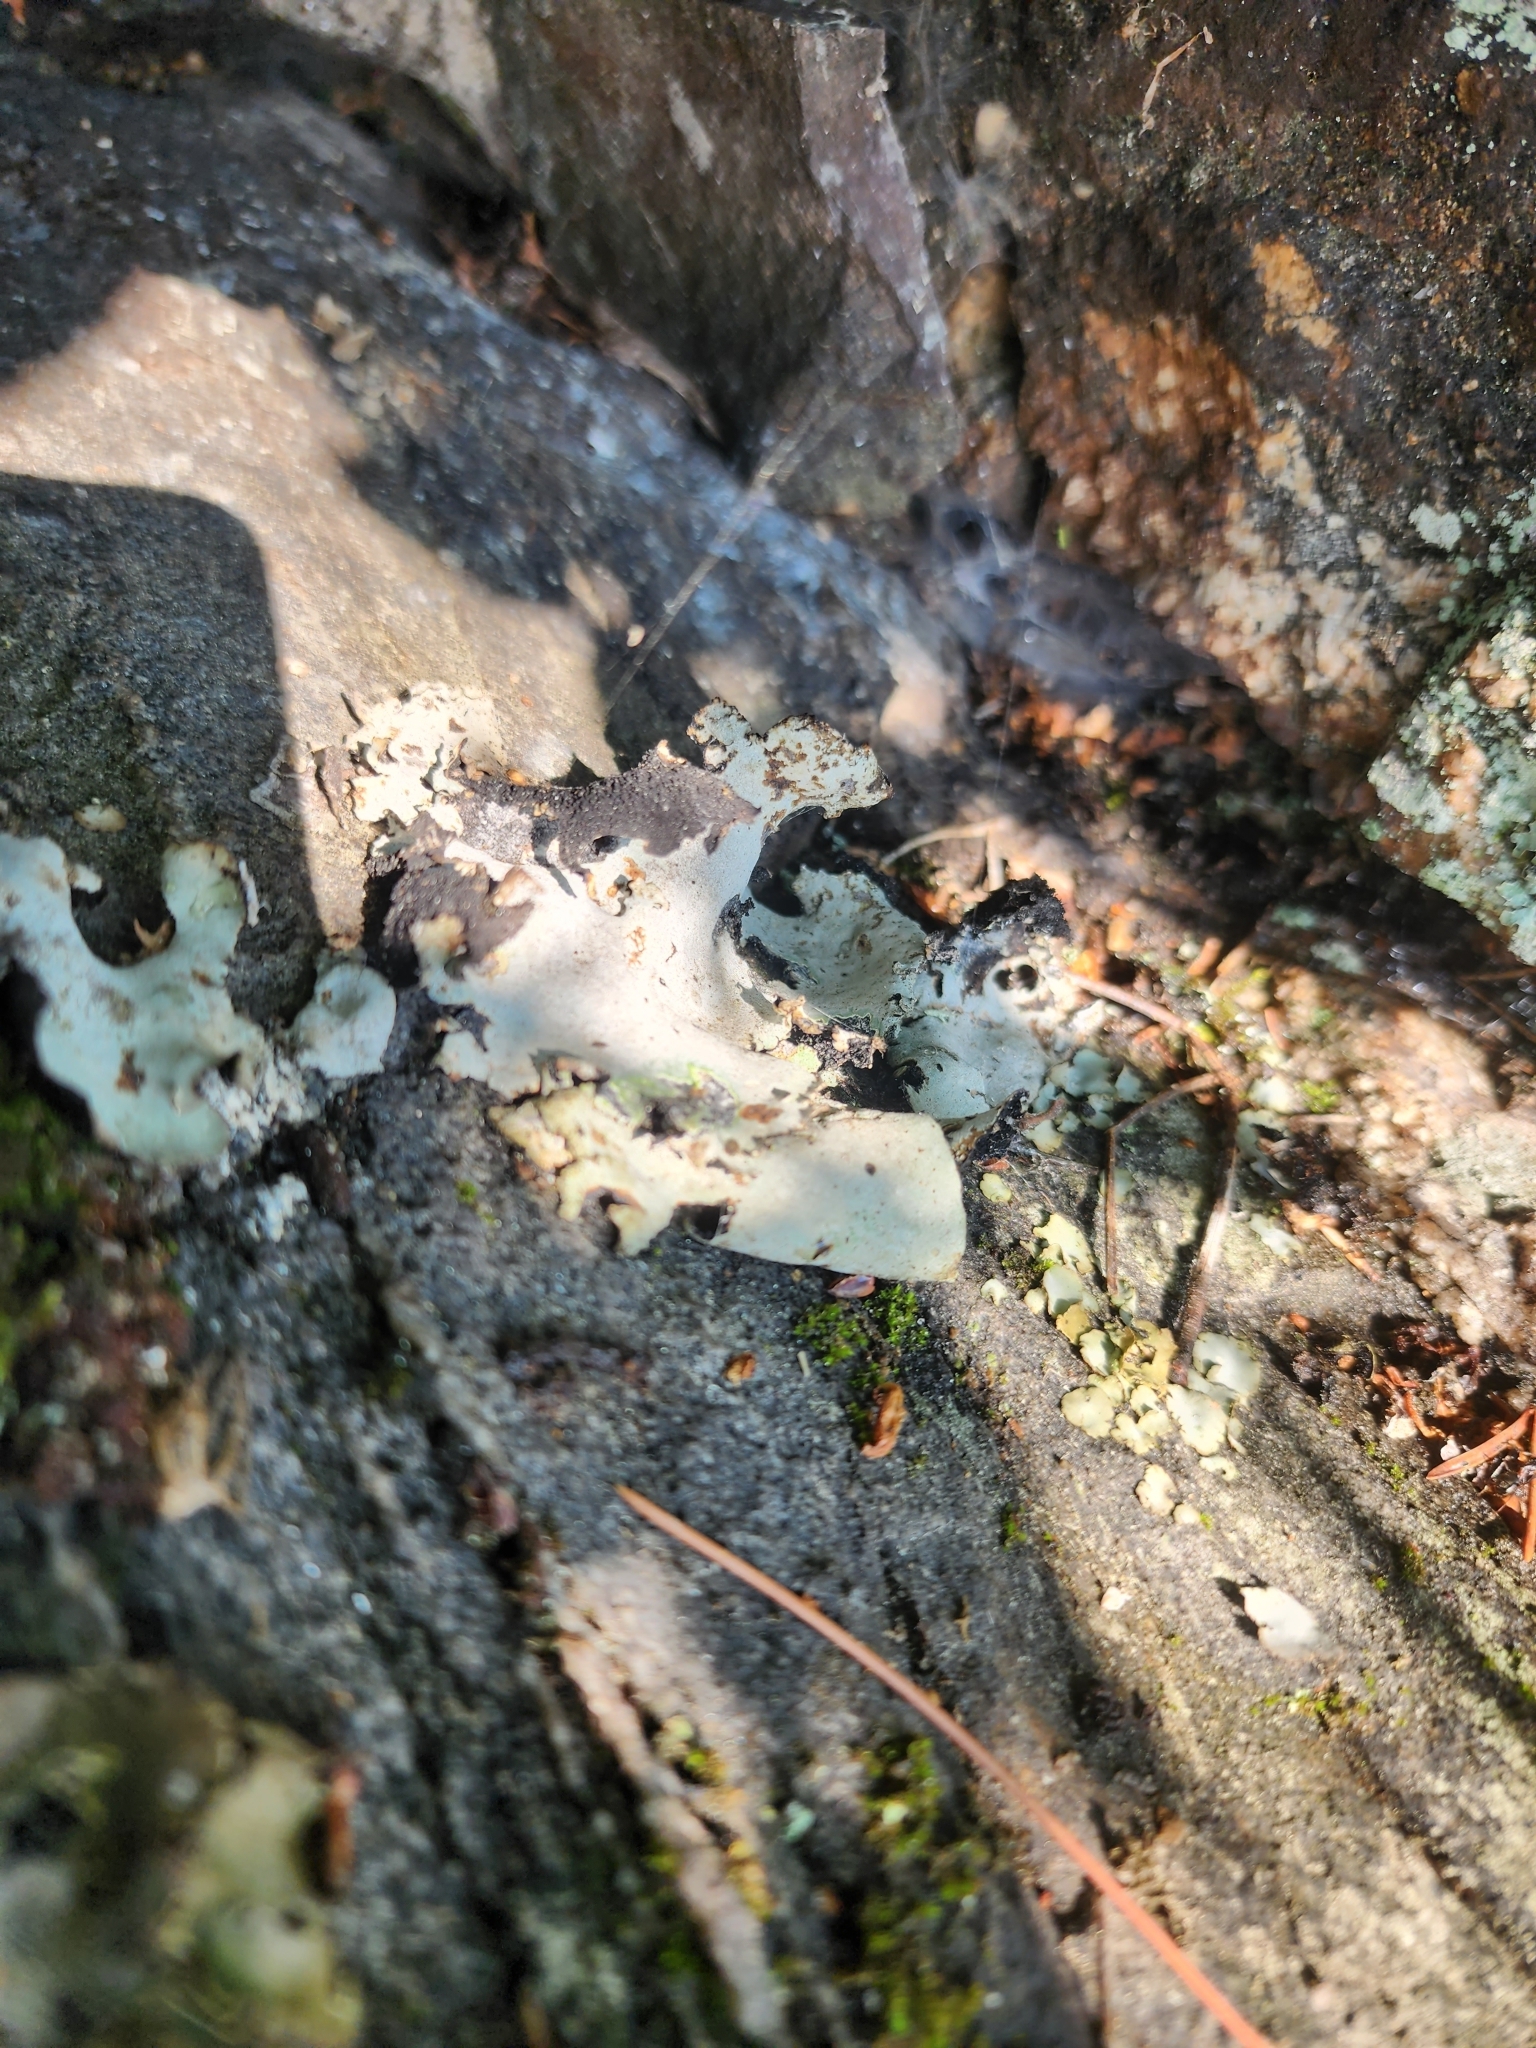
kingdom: Fungi
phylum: Ascomycota
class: Lecanoromycetes
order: Umbilicariales
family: Umbilicariaceae
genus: Umbilicaria
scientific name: Umbilicaria americana
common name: Frosted rock tripe
